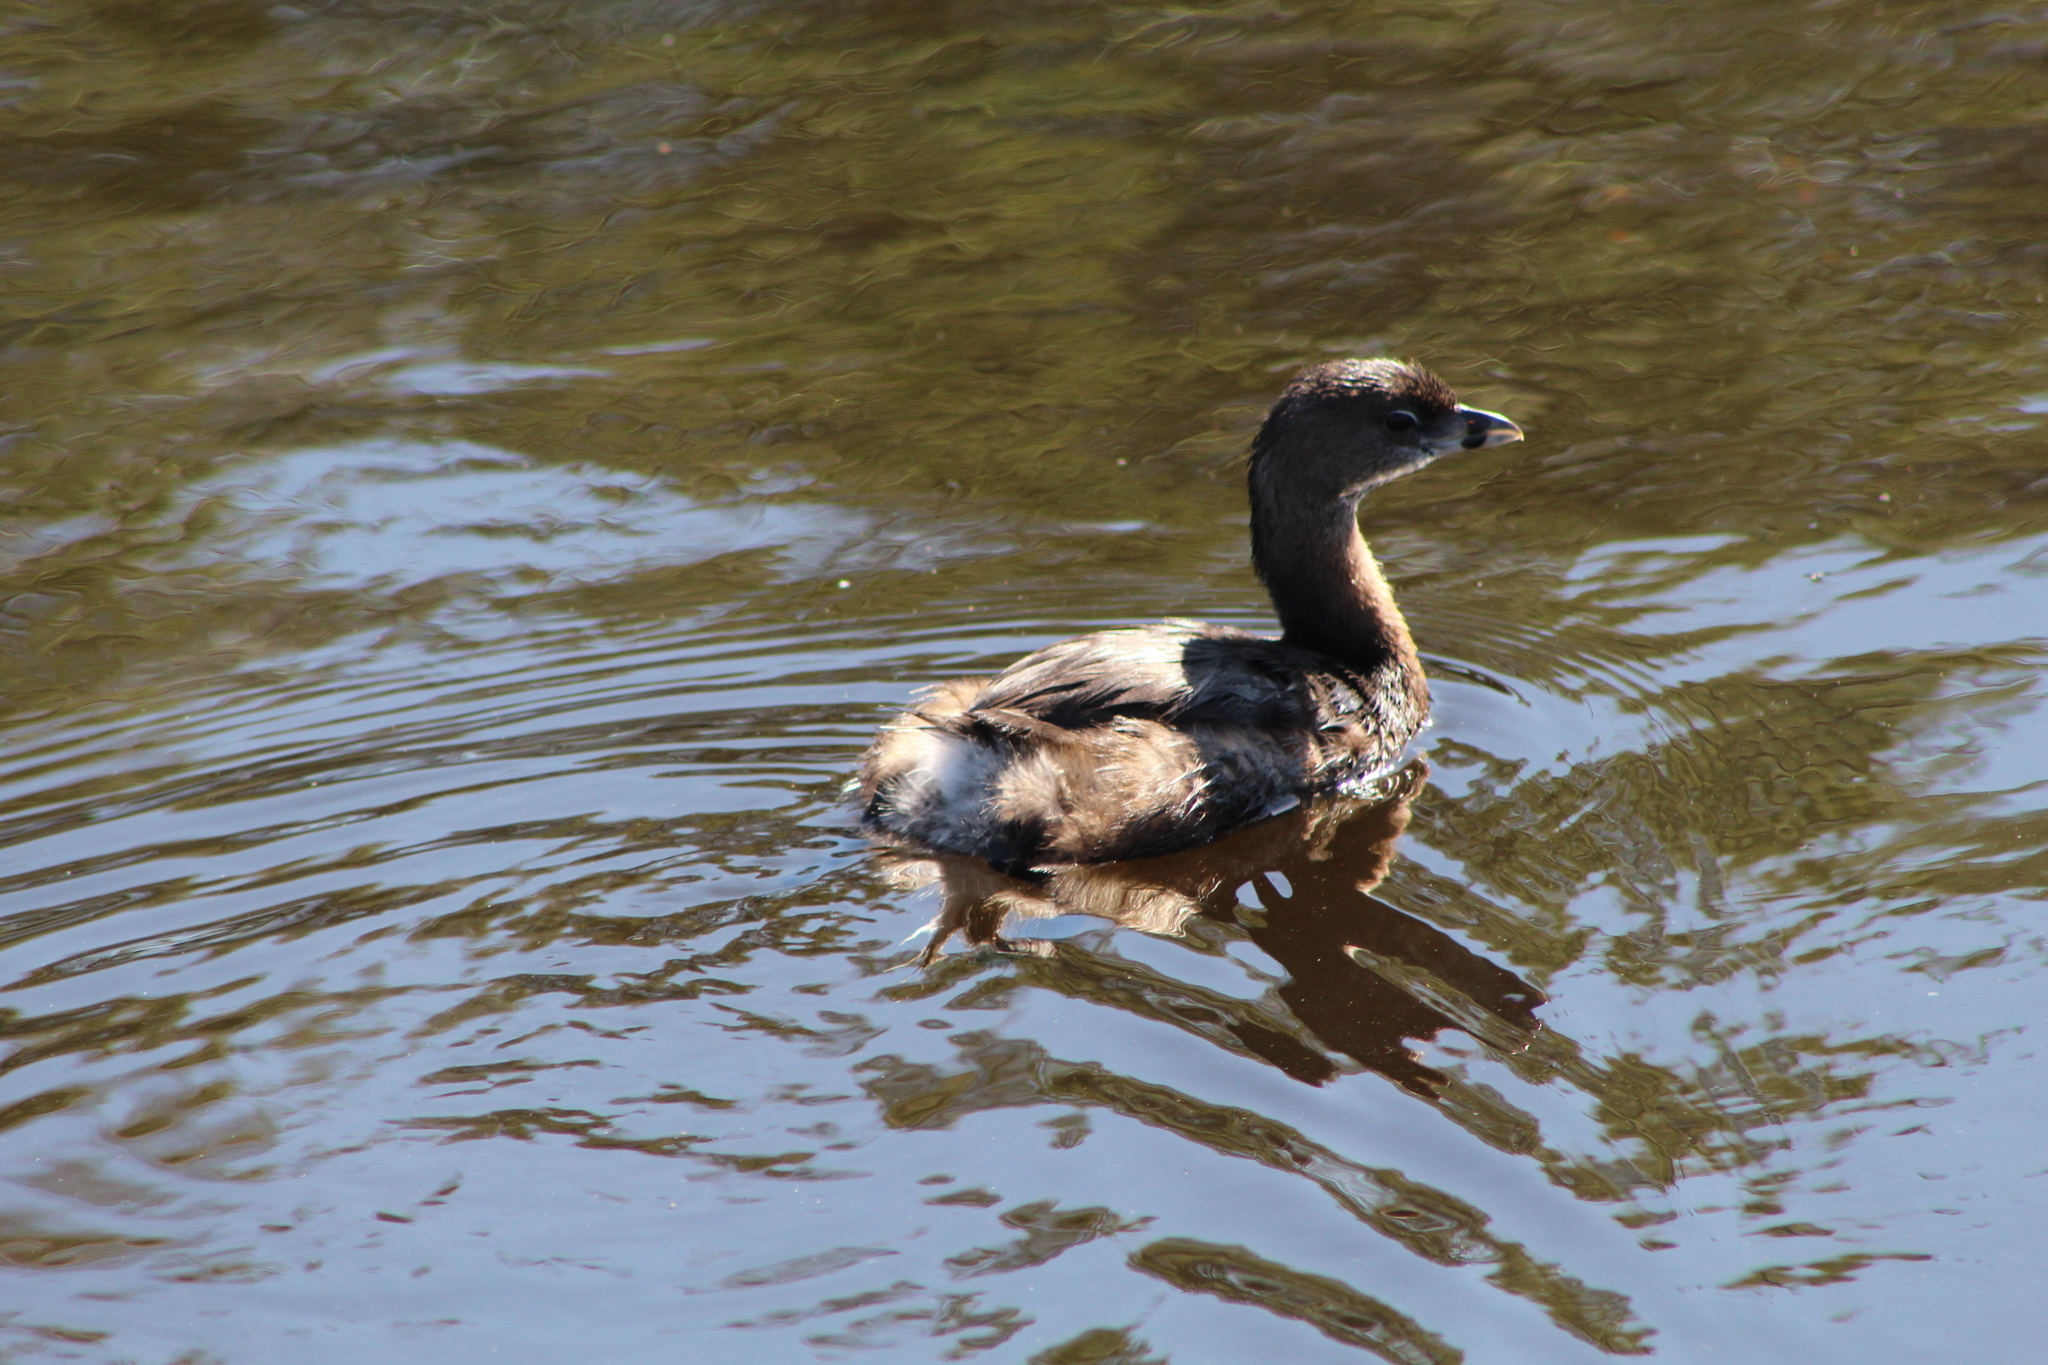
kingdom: Animalia
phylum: Chordata
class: Aves
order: Podicipediformes
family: Podicipedidae
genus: Podilymbus
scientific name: Podilymbus podiceps
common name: Pied-billed grebe
